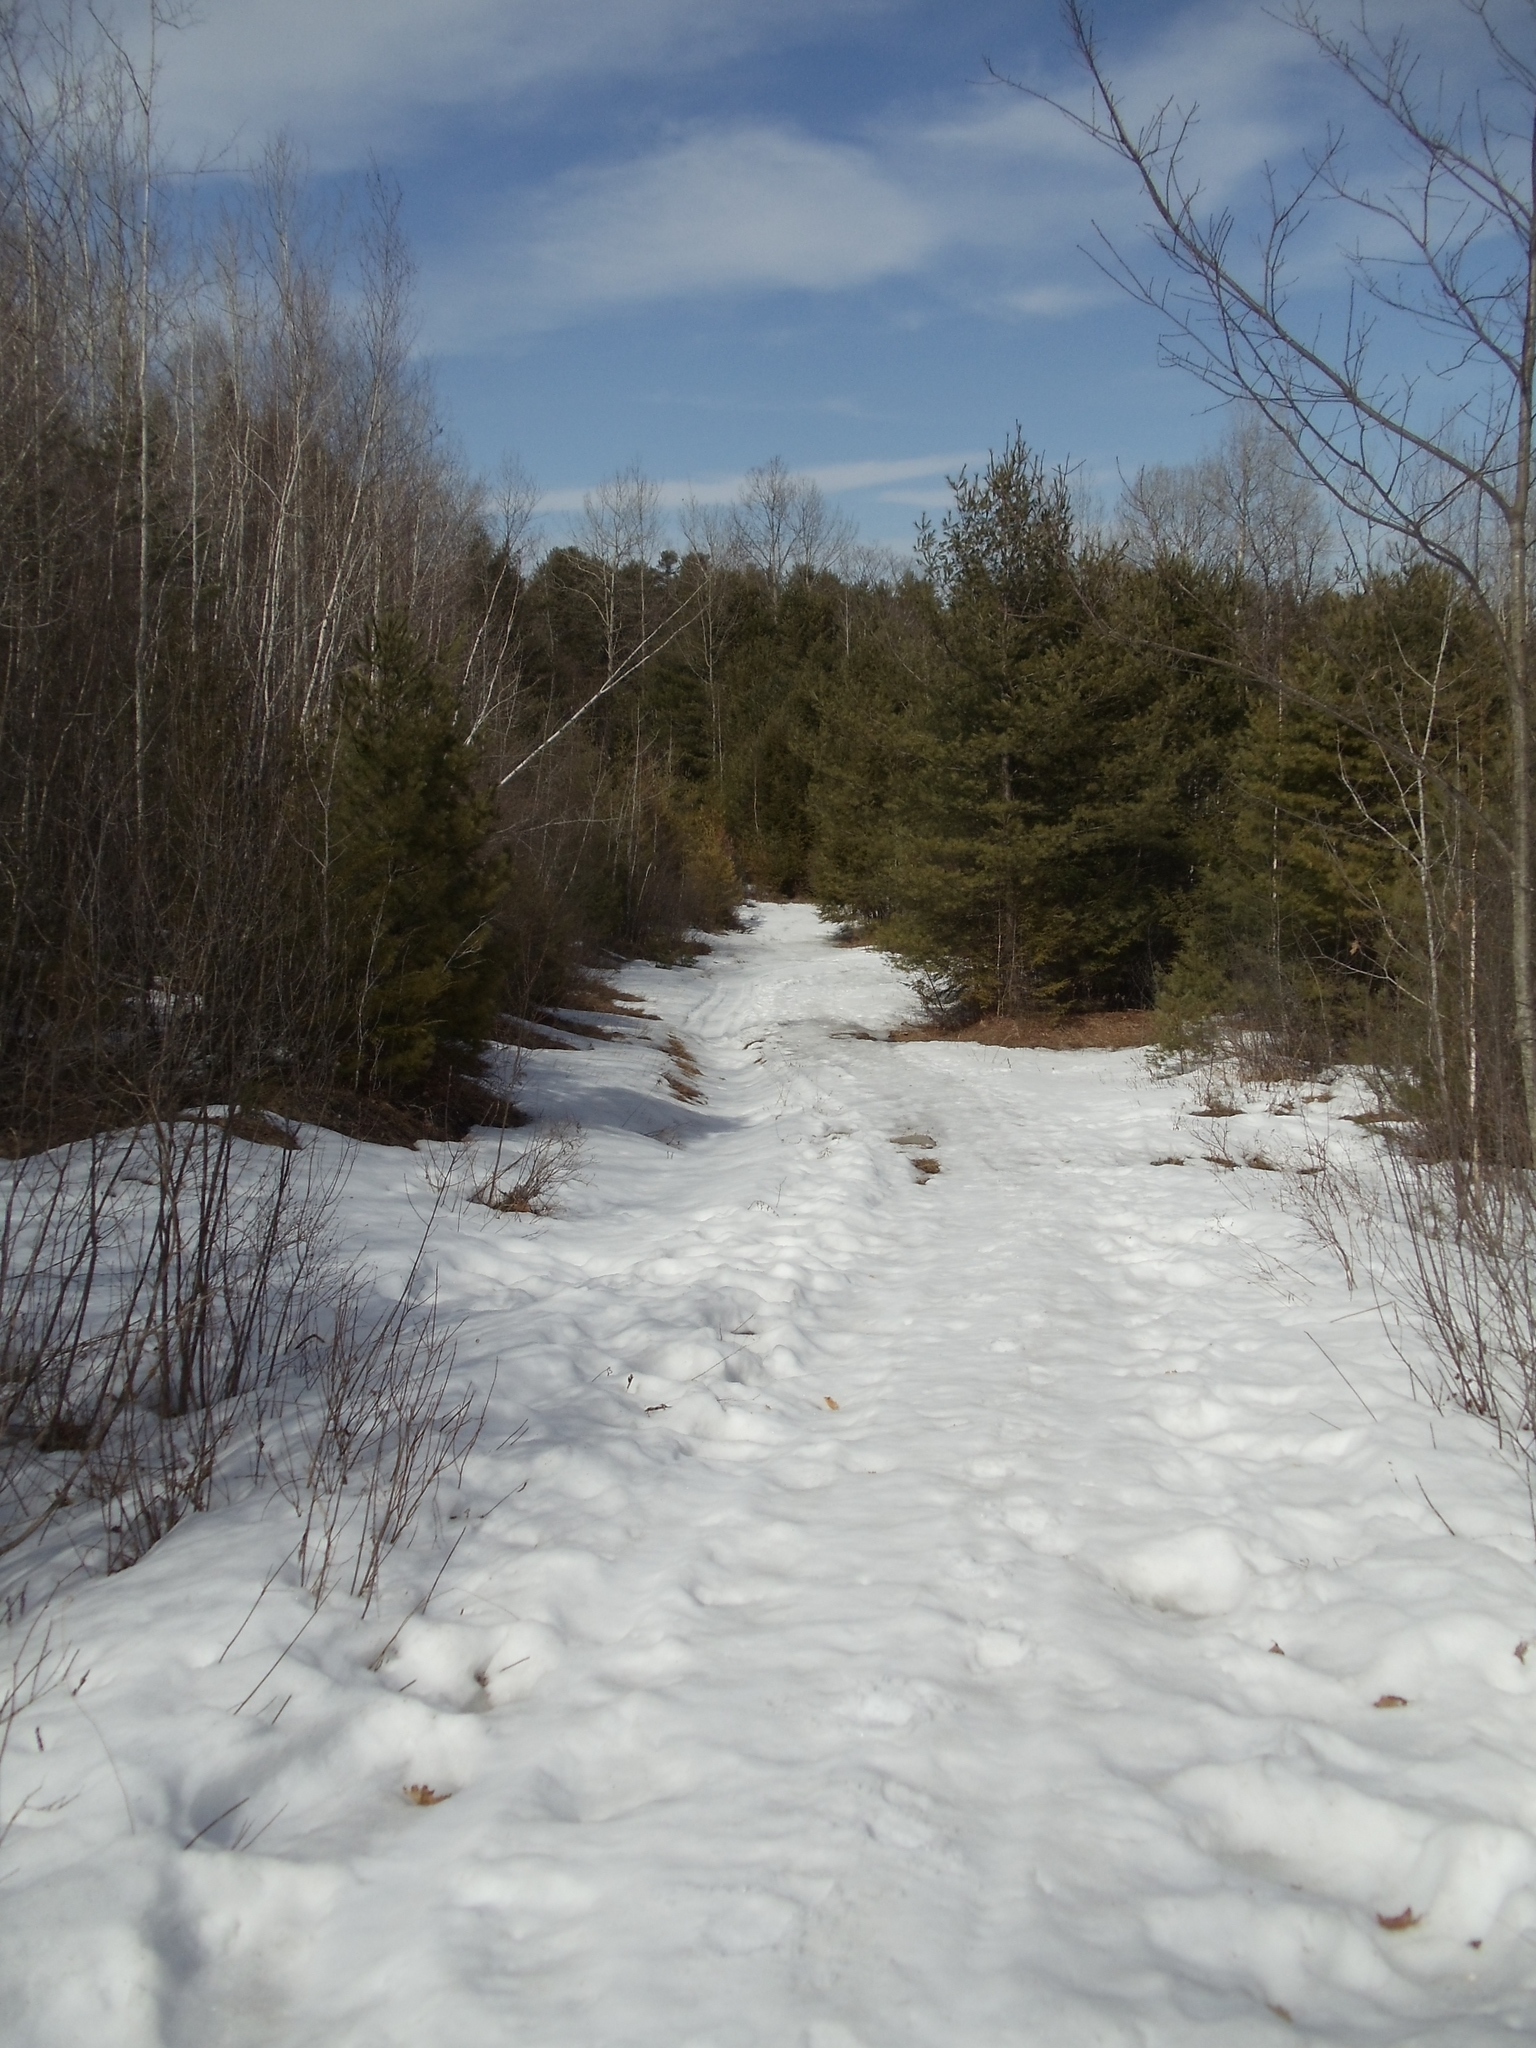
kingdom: Plantae
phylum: Tracheophyta
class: Pinopsida
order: Pinales
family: Pinaceae
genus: Pinus
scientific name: Pinus strobus
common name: Weymouth pine
